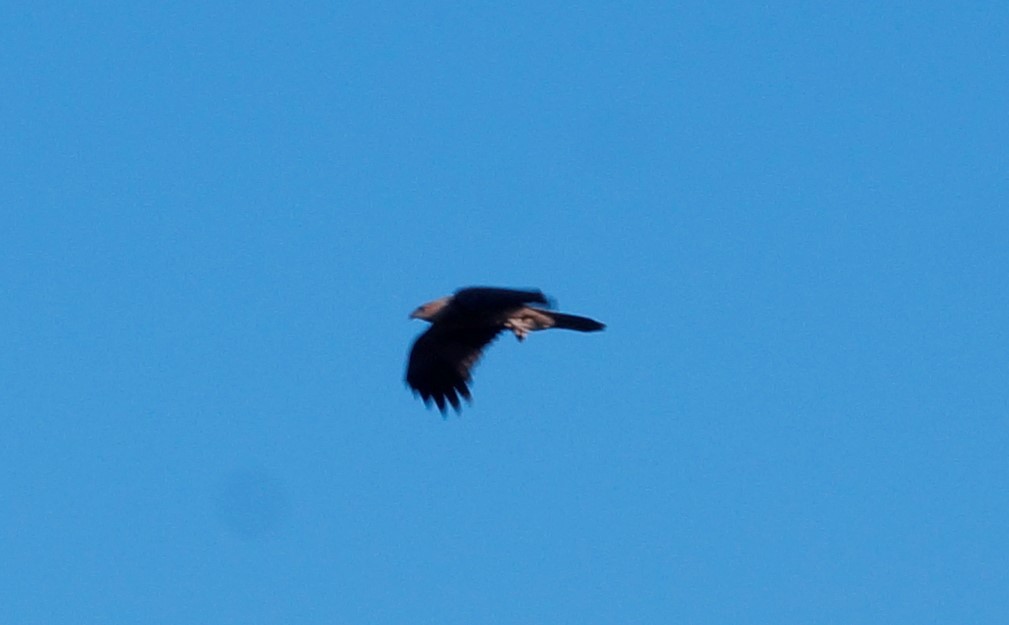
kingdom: Animalia
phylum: Chordata
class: Aves
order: Accipitriformes
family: Accipitridae
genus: Haliastur
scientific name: Haliastur sphenurus
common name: Whistling kite
